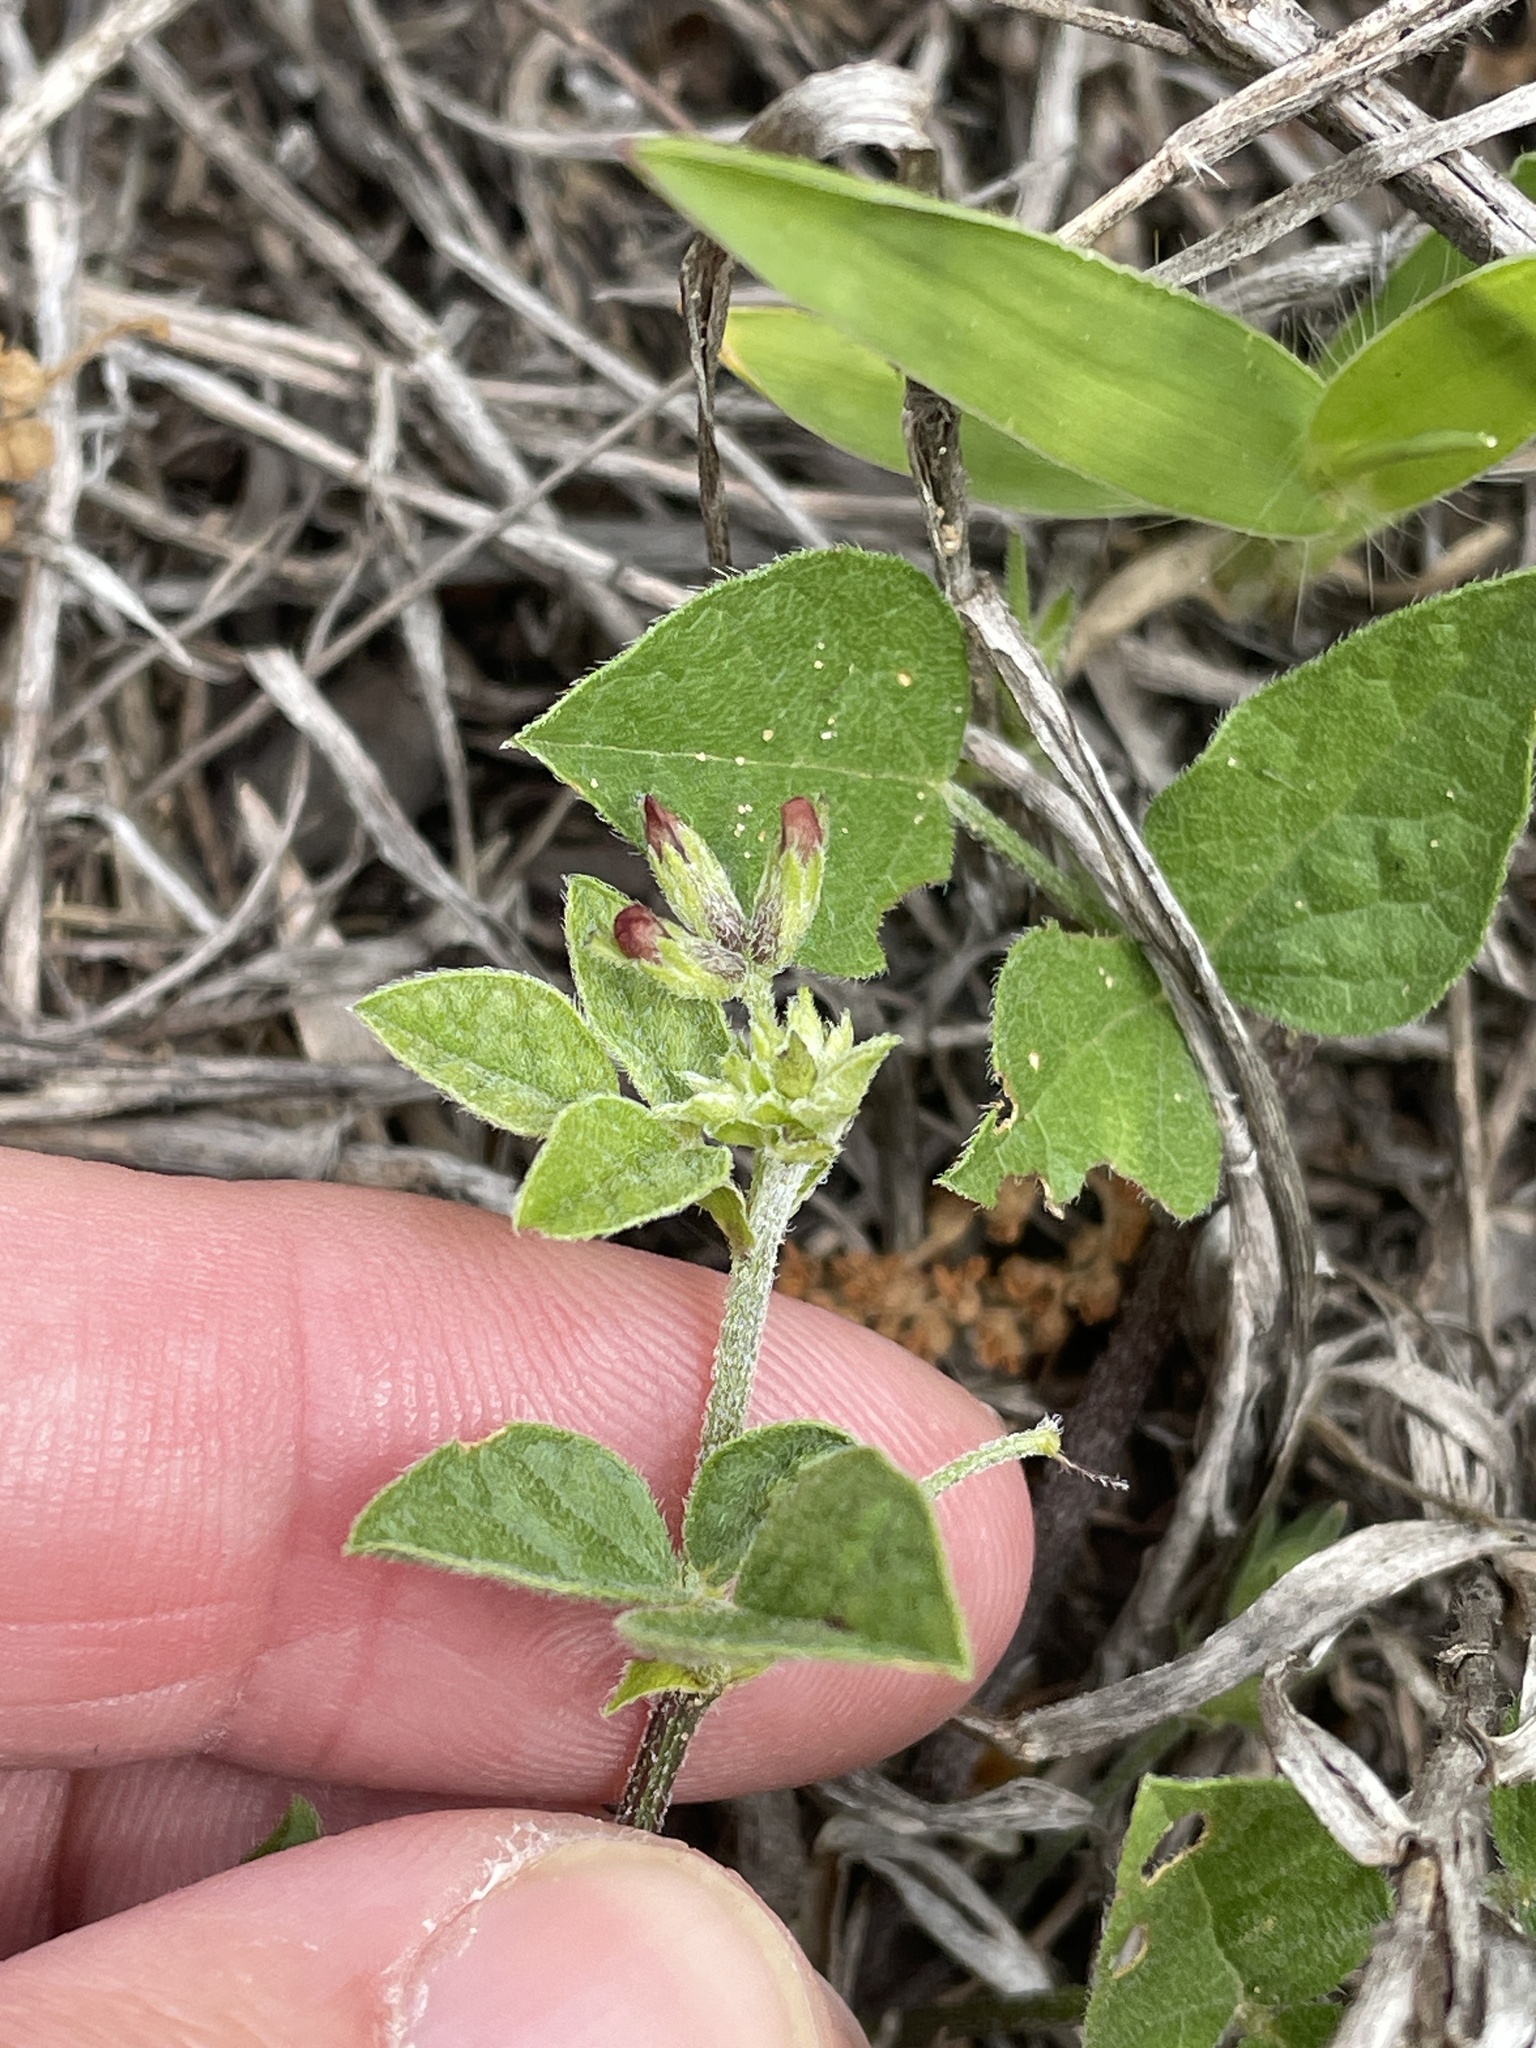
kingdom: Plantae
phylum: Tracheophyta
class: Magnoliopsida
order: Fabales
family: Fabaceae
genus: Pediomelum
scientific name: Pediomelum rhombifolium
